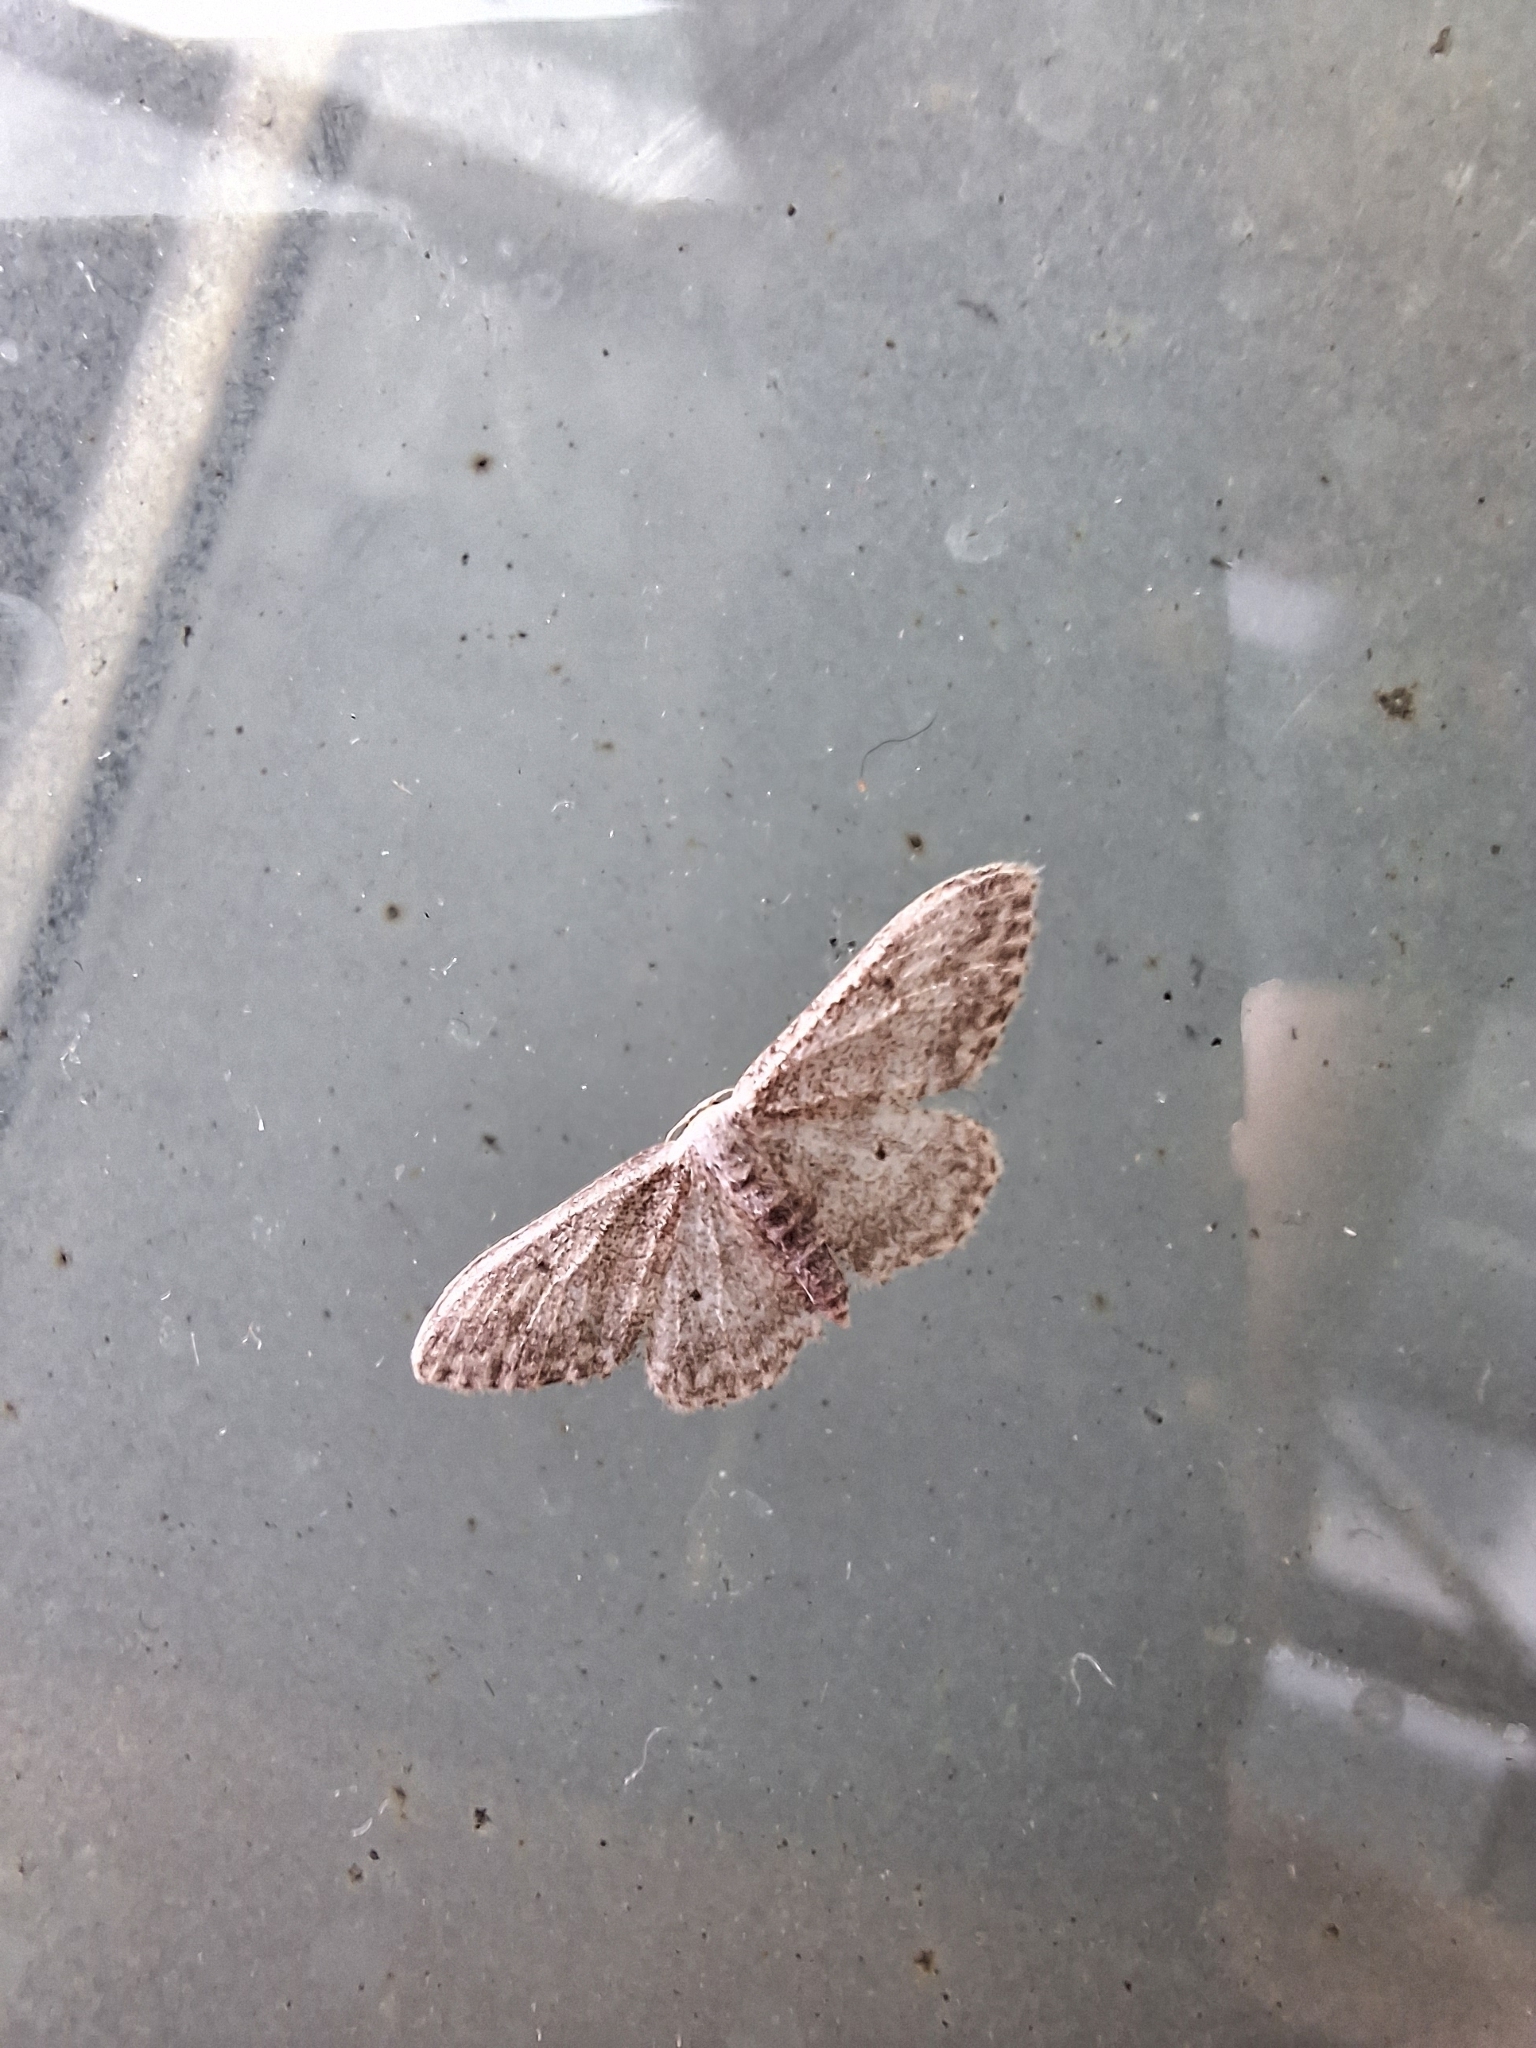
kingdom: Animalia
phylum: Arthropoda
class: Insecta
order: Lepidoptera
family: Geometridae
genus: Idaea
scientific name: Idaea seriata
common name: Small dusty wave
